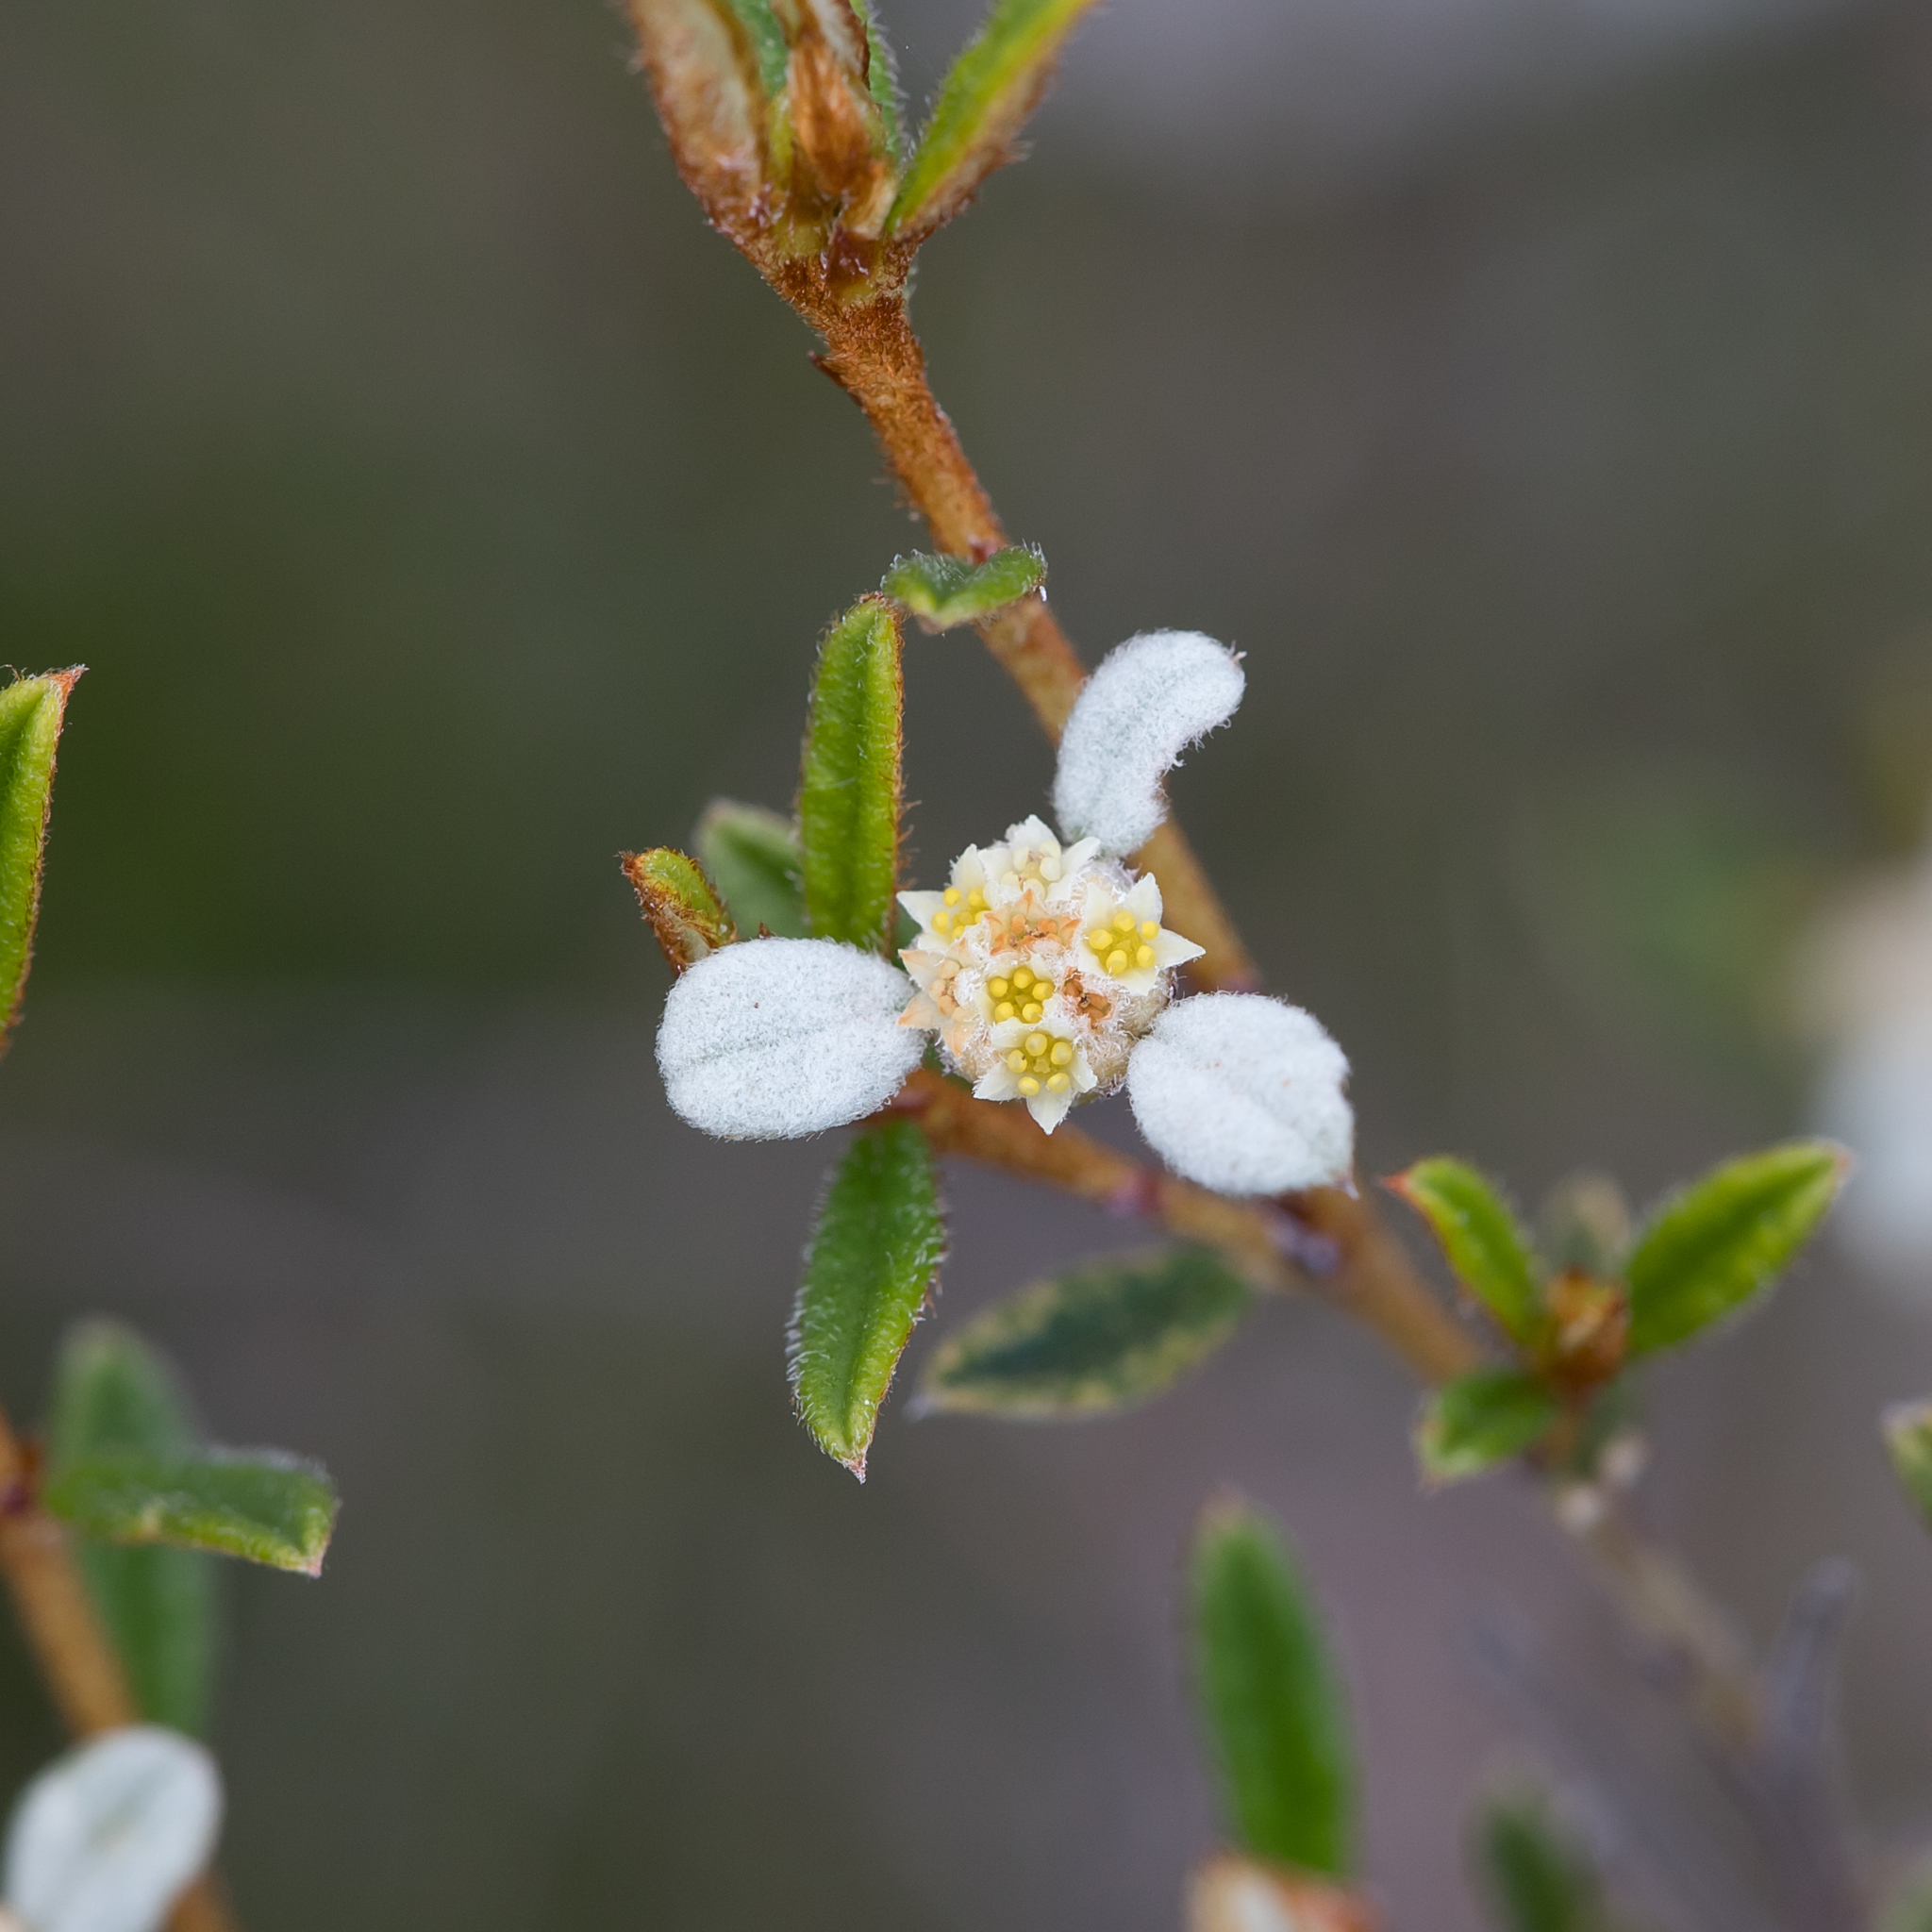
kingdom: Plantae
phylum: Tracheophyta
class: Magnoliopsida
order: Rosales
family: Rhamnaceae
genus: Spyridium
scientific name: Spyridium vexilliferum
